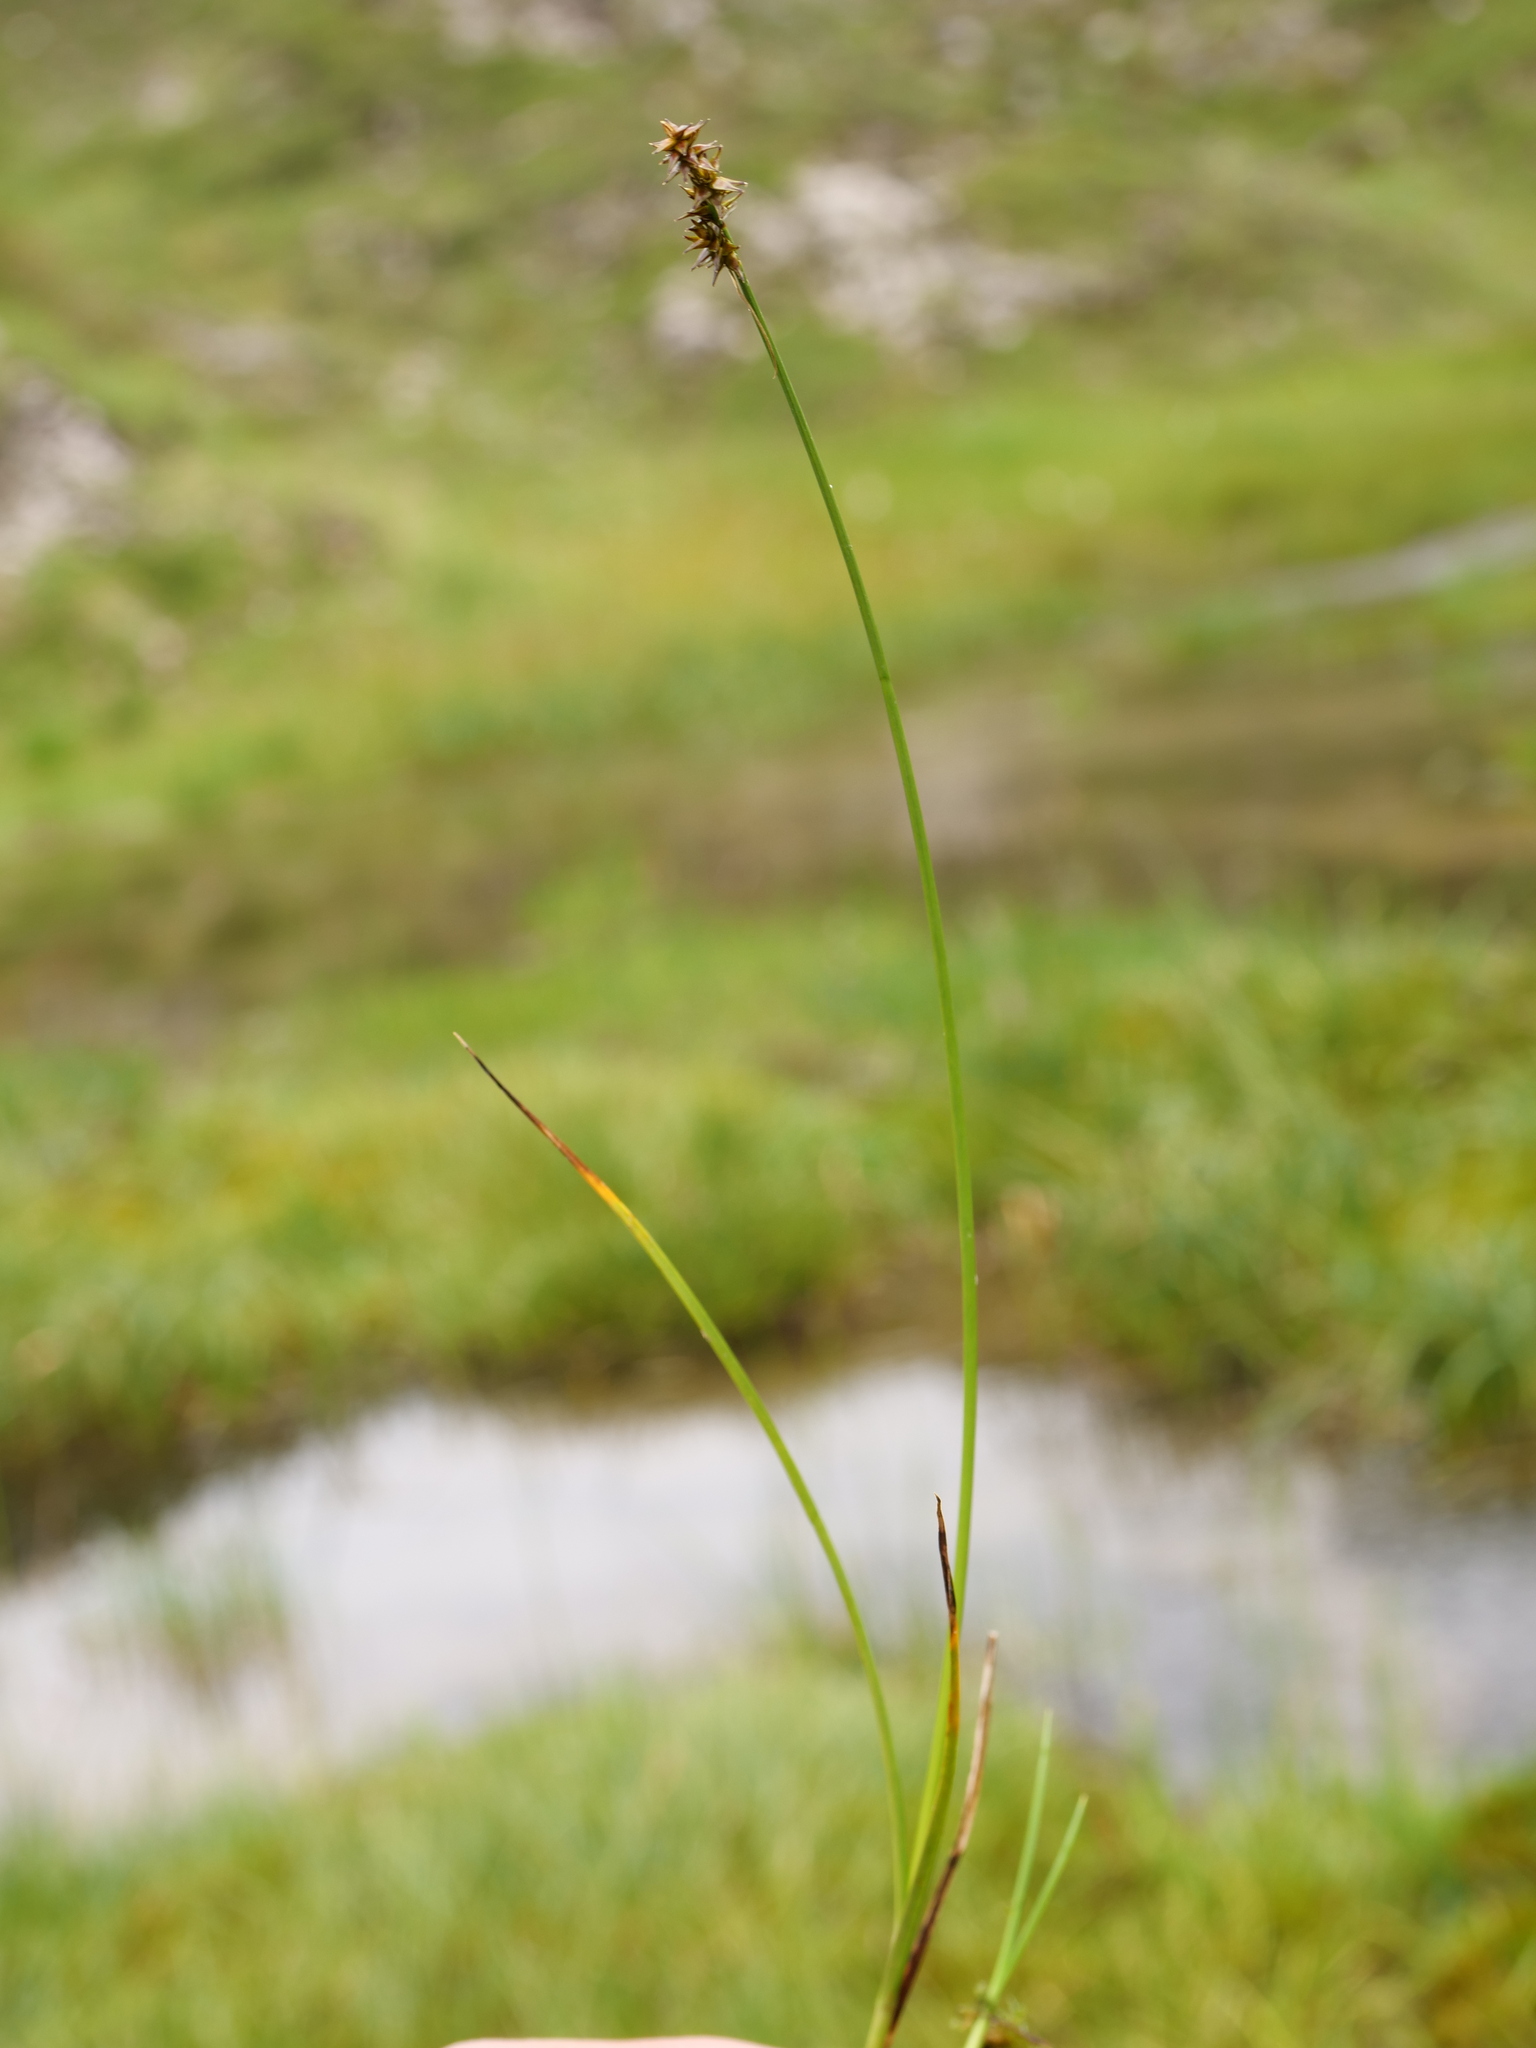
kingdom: Plantae
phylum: Tracheophyta
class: Liliopsida
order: Poales
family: Cyperaceae
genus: Carex
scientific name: Carex echinata
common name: Star sedge
